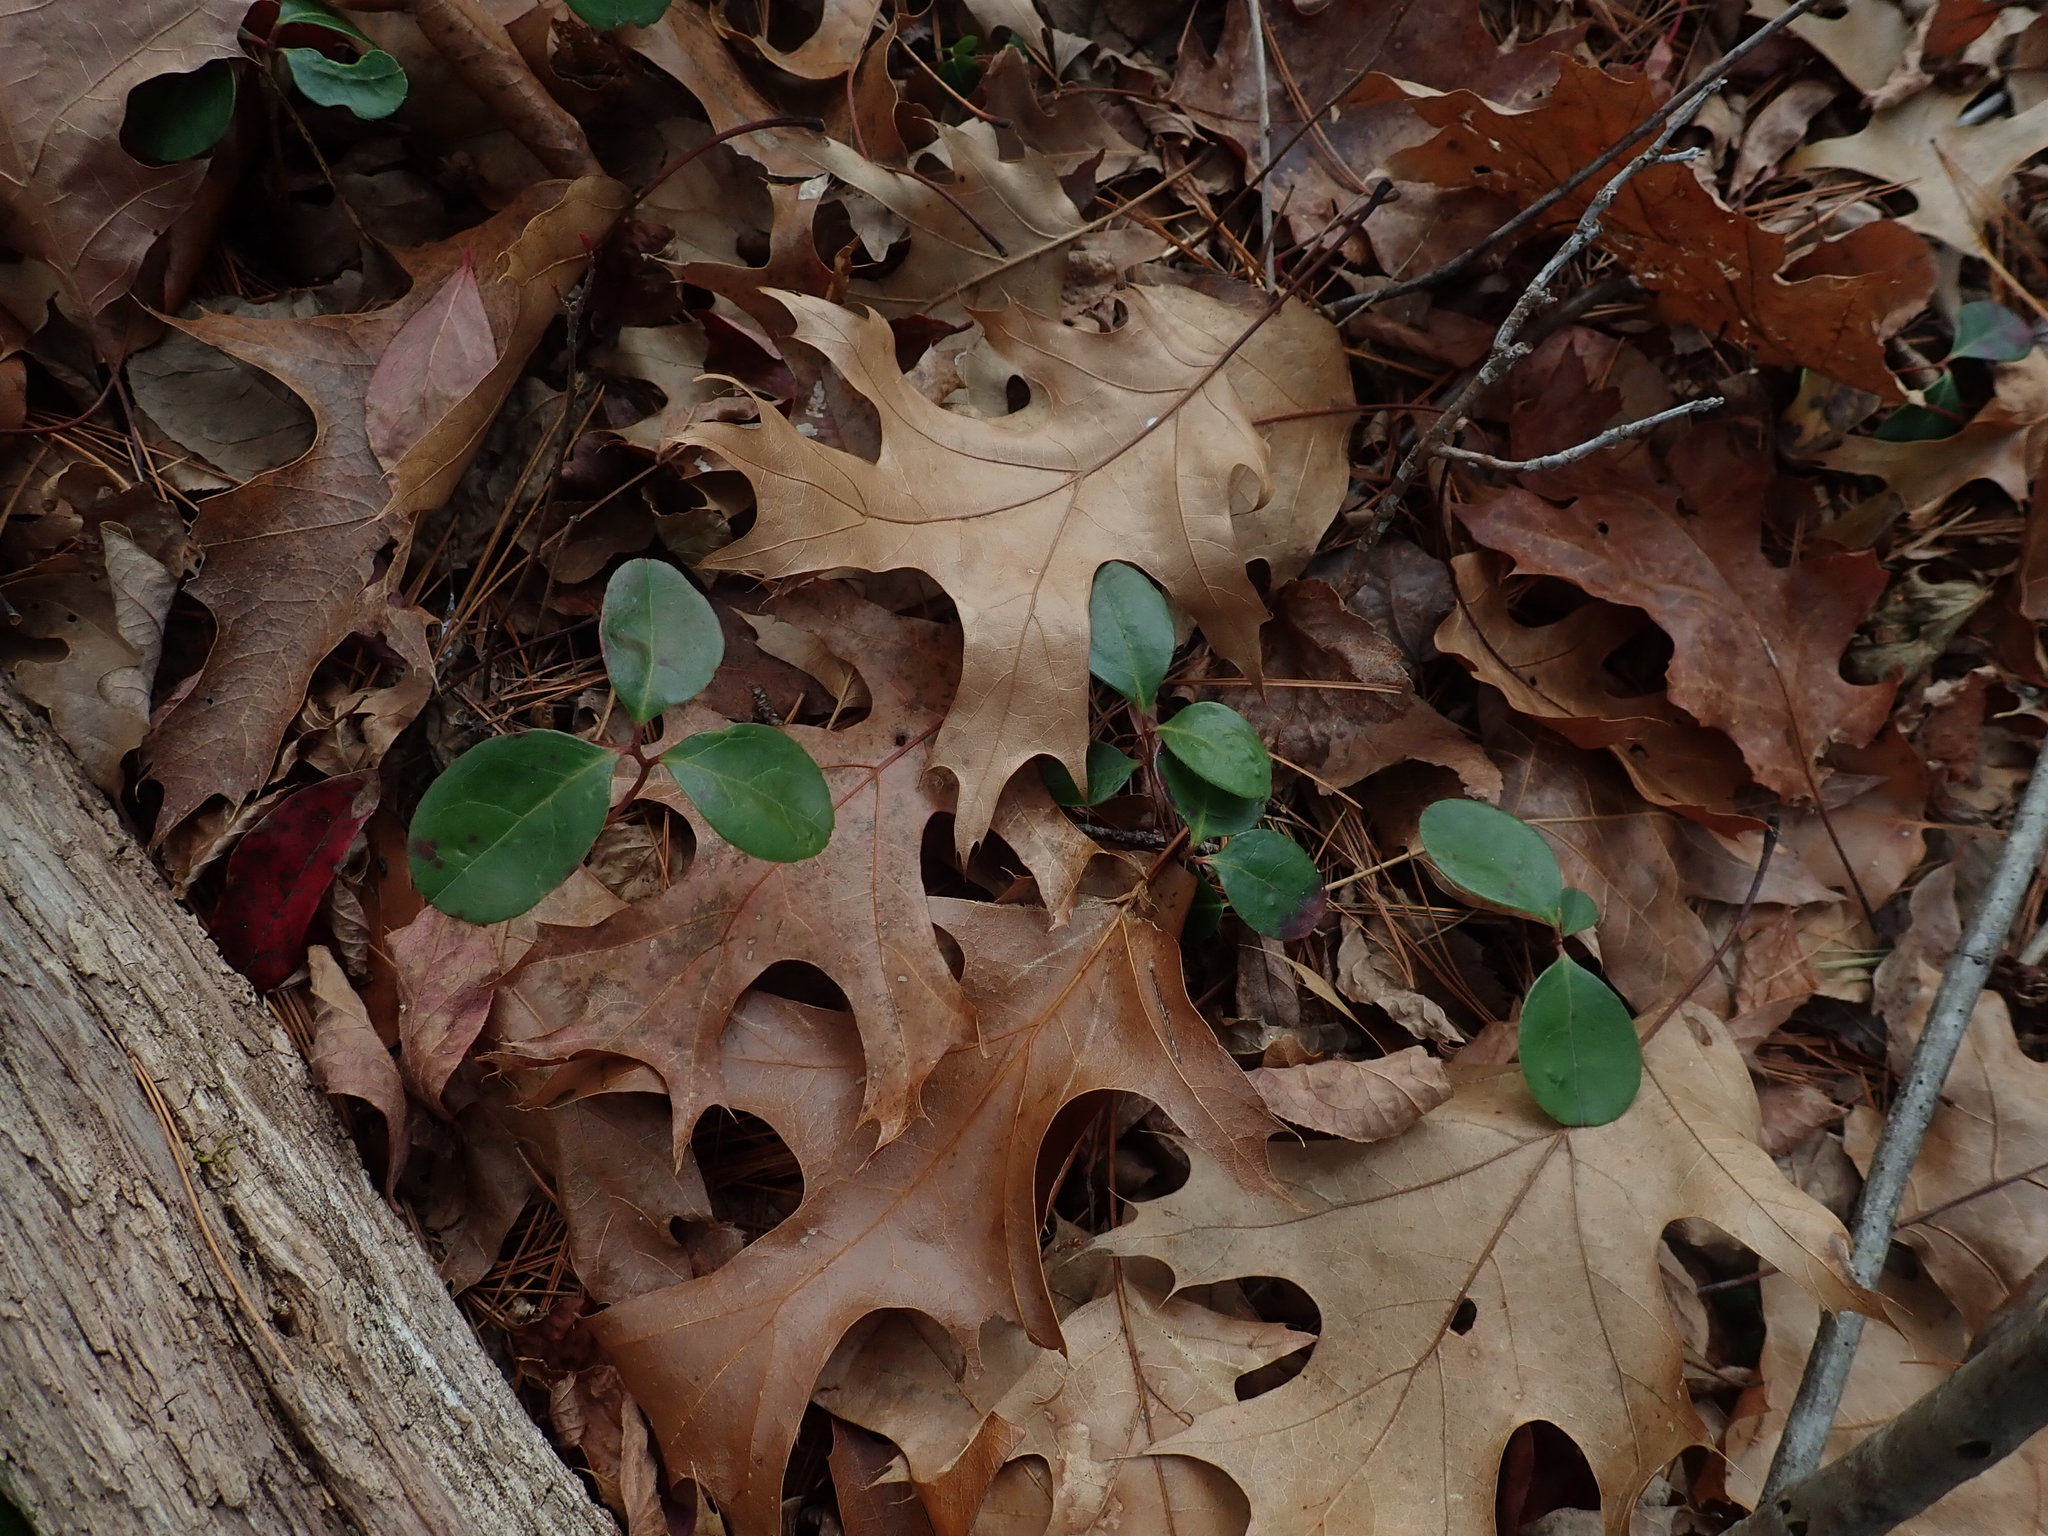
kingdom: Plantae
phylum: Tracheophyta
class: Magnoliopsida
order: Ericales
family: Ericaceae
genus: Gaultheria
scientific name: Gaultheria procumbens
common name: Checkerberry
